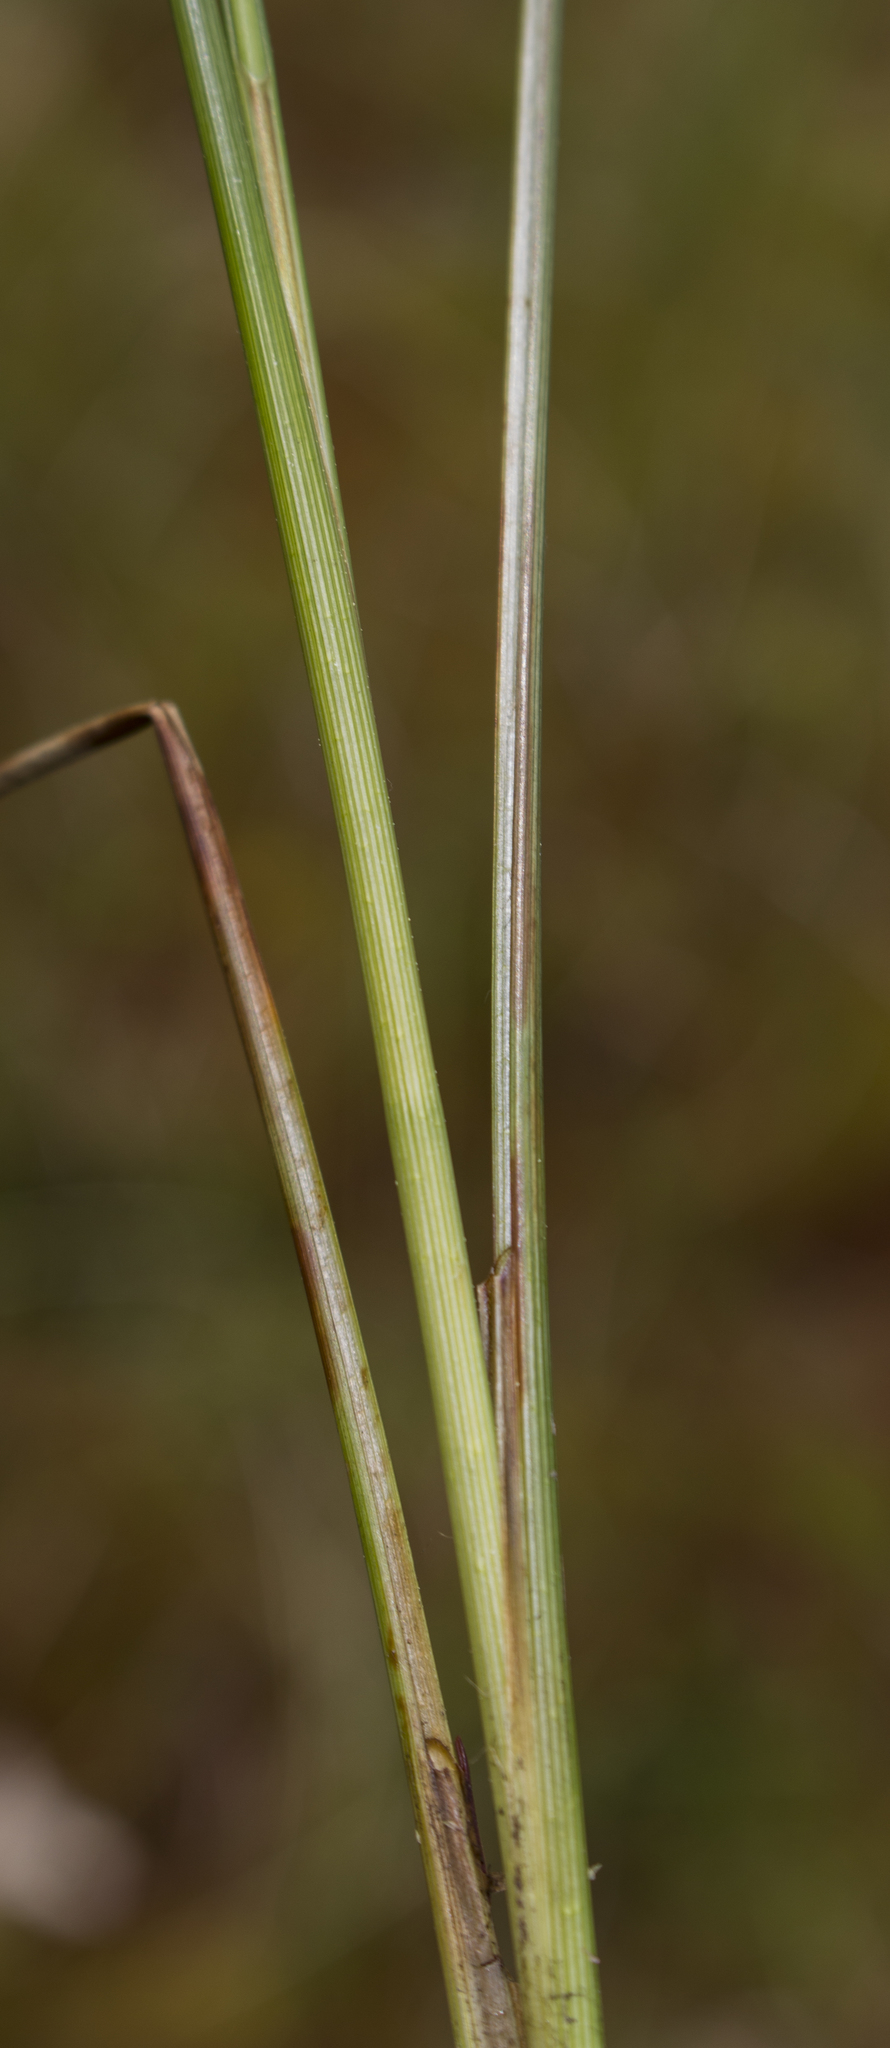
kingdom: Plantae
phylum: Tracheophyta
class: Liliopsida
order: Poales
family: Cyperaceae
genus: Carex
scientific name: Carex oligosperma
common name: Few-seed sedge
